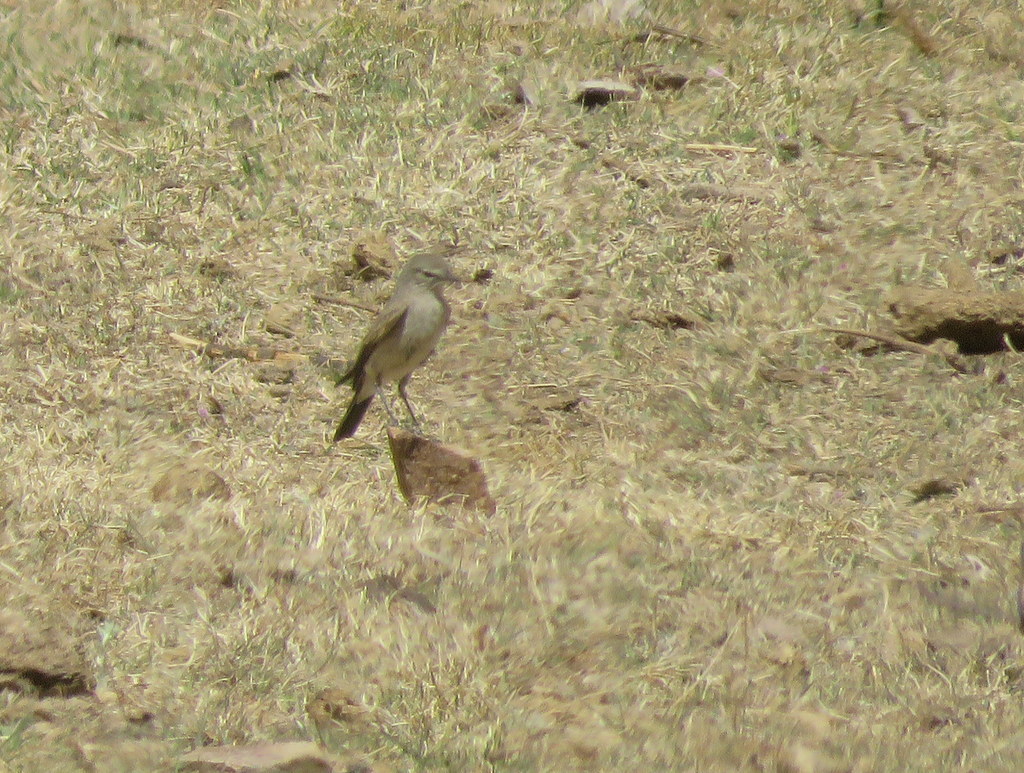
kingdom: Animalia
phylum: Chordata
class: Aves
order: Passeriformes
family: Tyrannidae
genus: Muscisaxicola
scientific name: Muscisaxicola maculirostris
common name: Spot-billed ground tyrant
